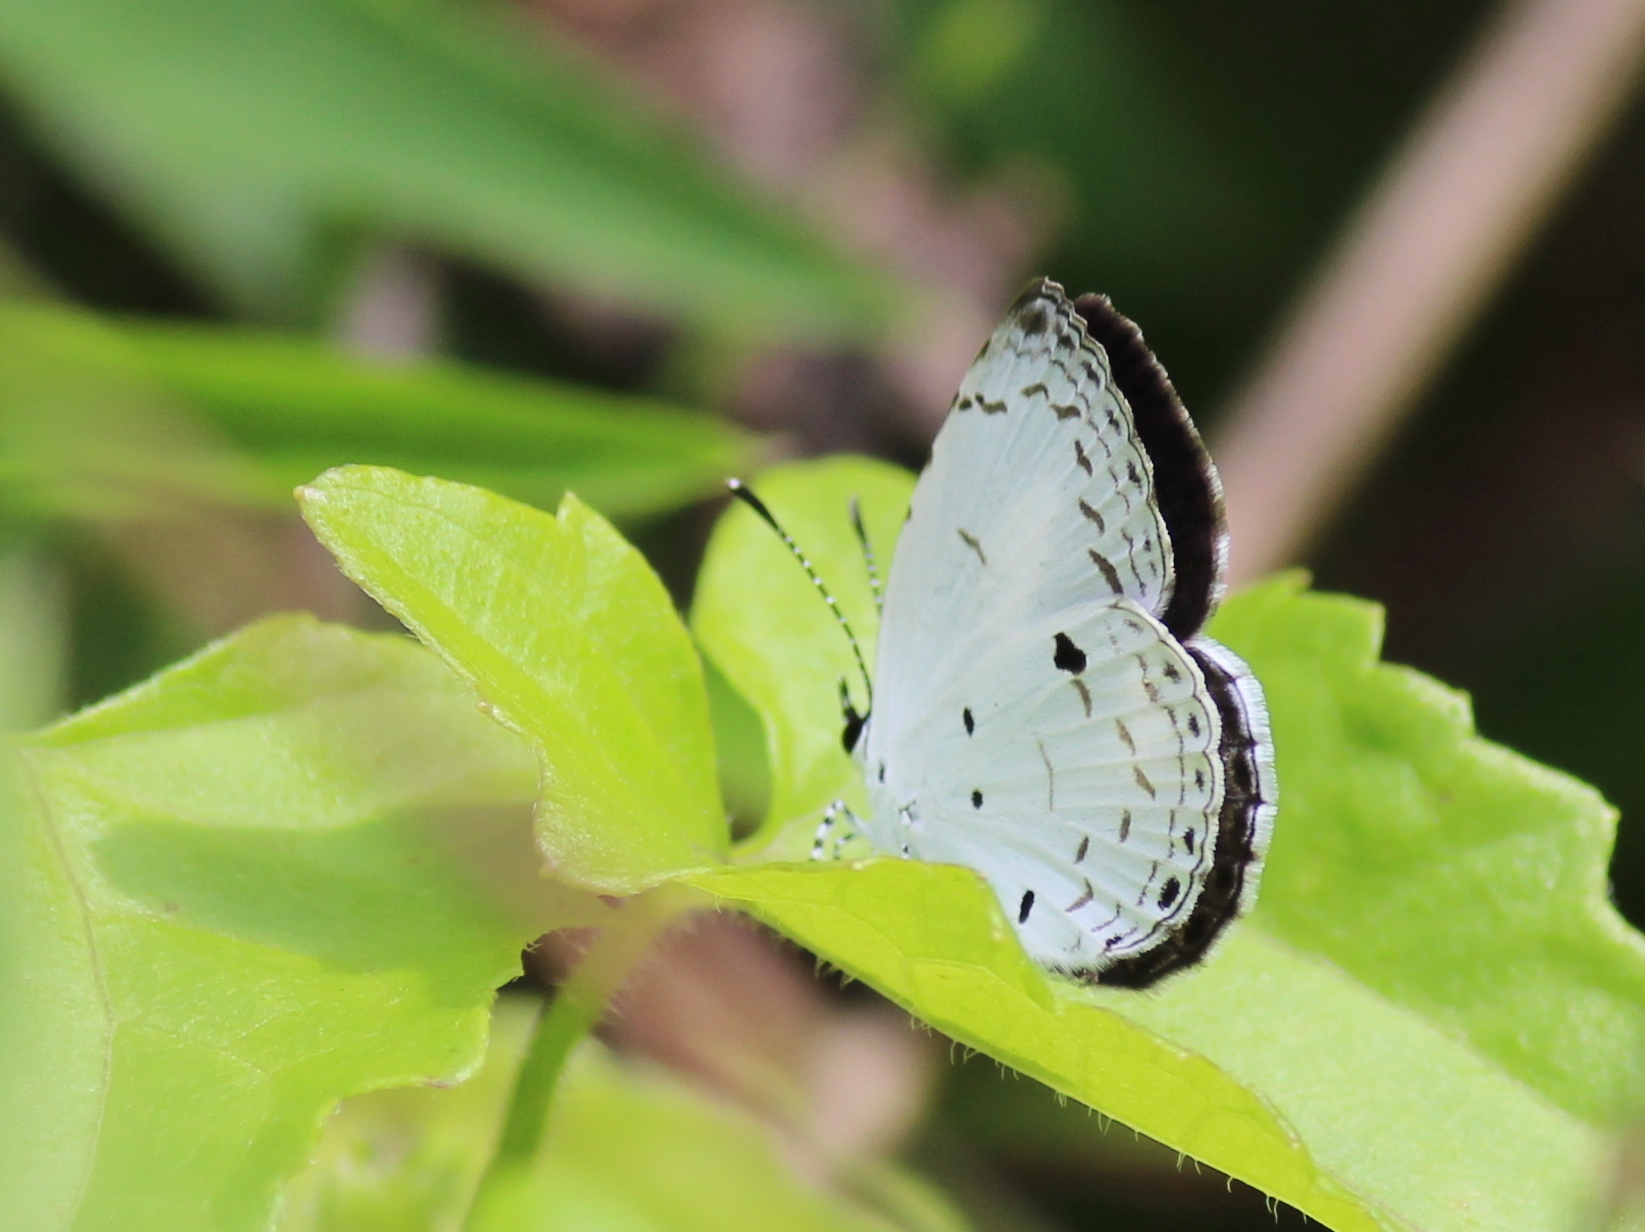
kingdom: Animalia
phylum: Arthropoda
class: Insecta
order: Lepidoptera
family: Lycaenidae
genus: Neopithecops
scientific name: Neopithecops zalmora
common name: Quaker
